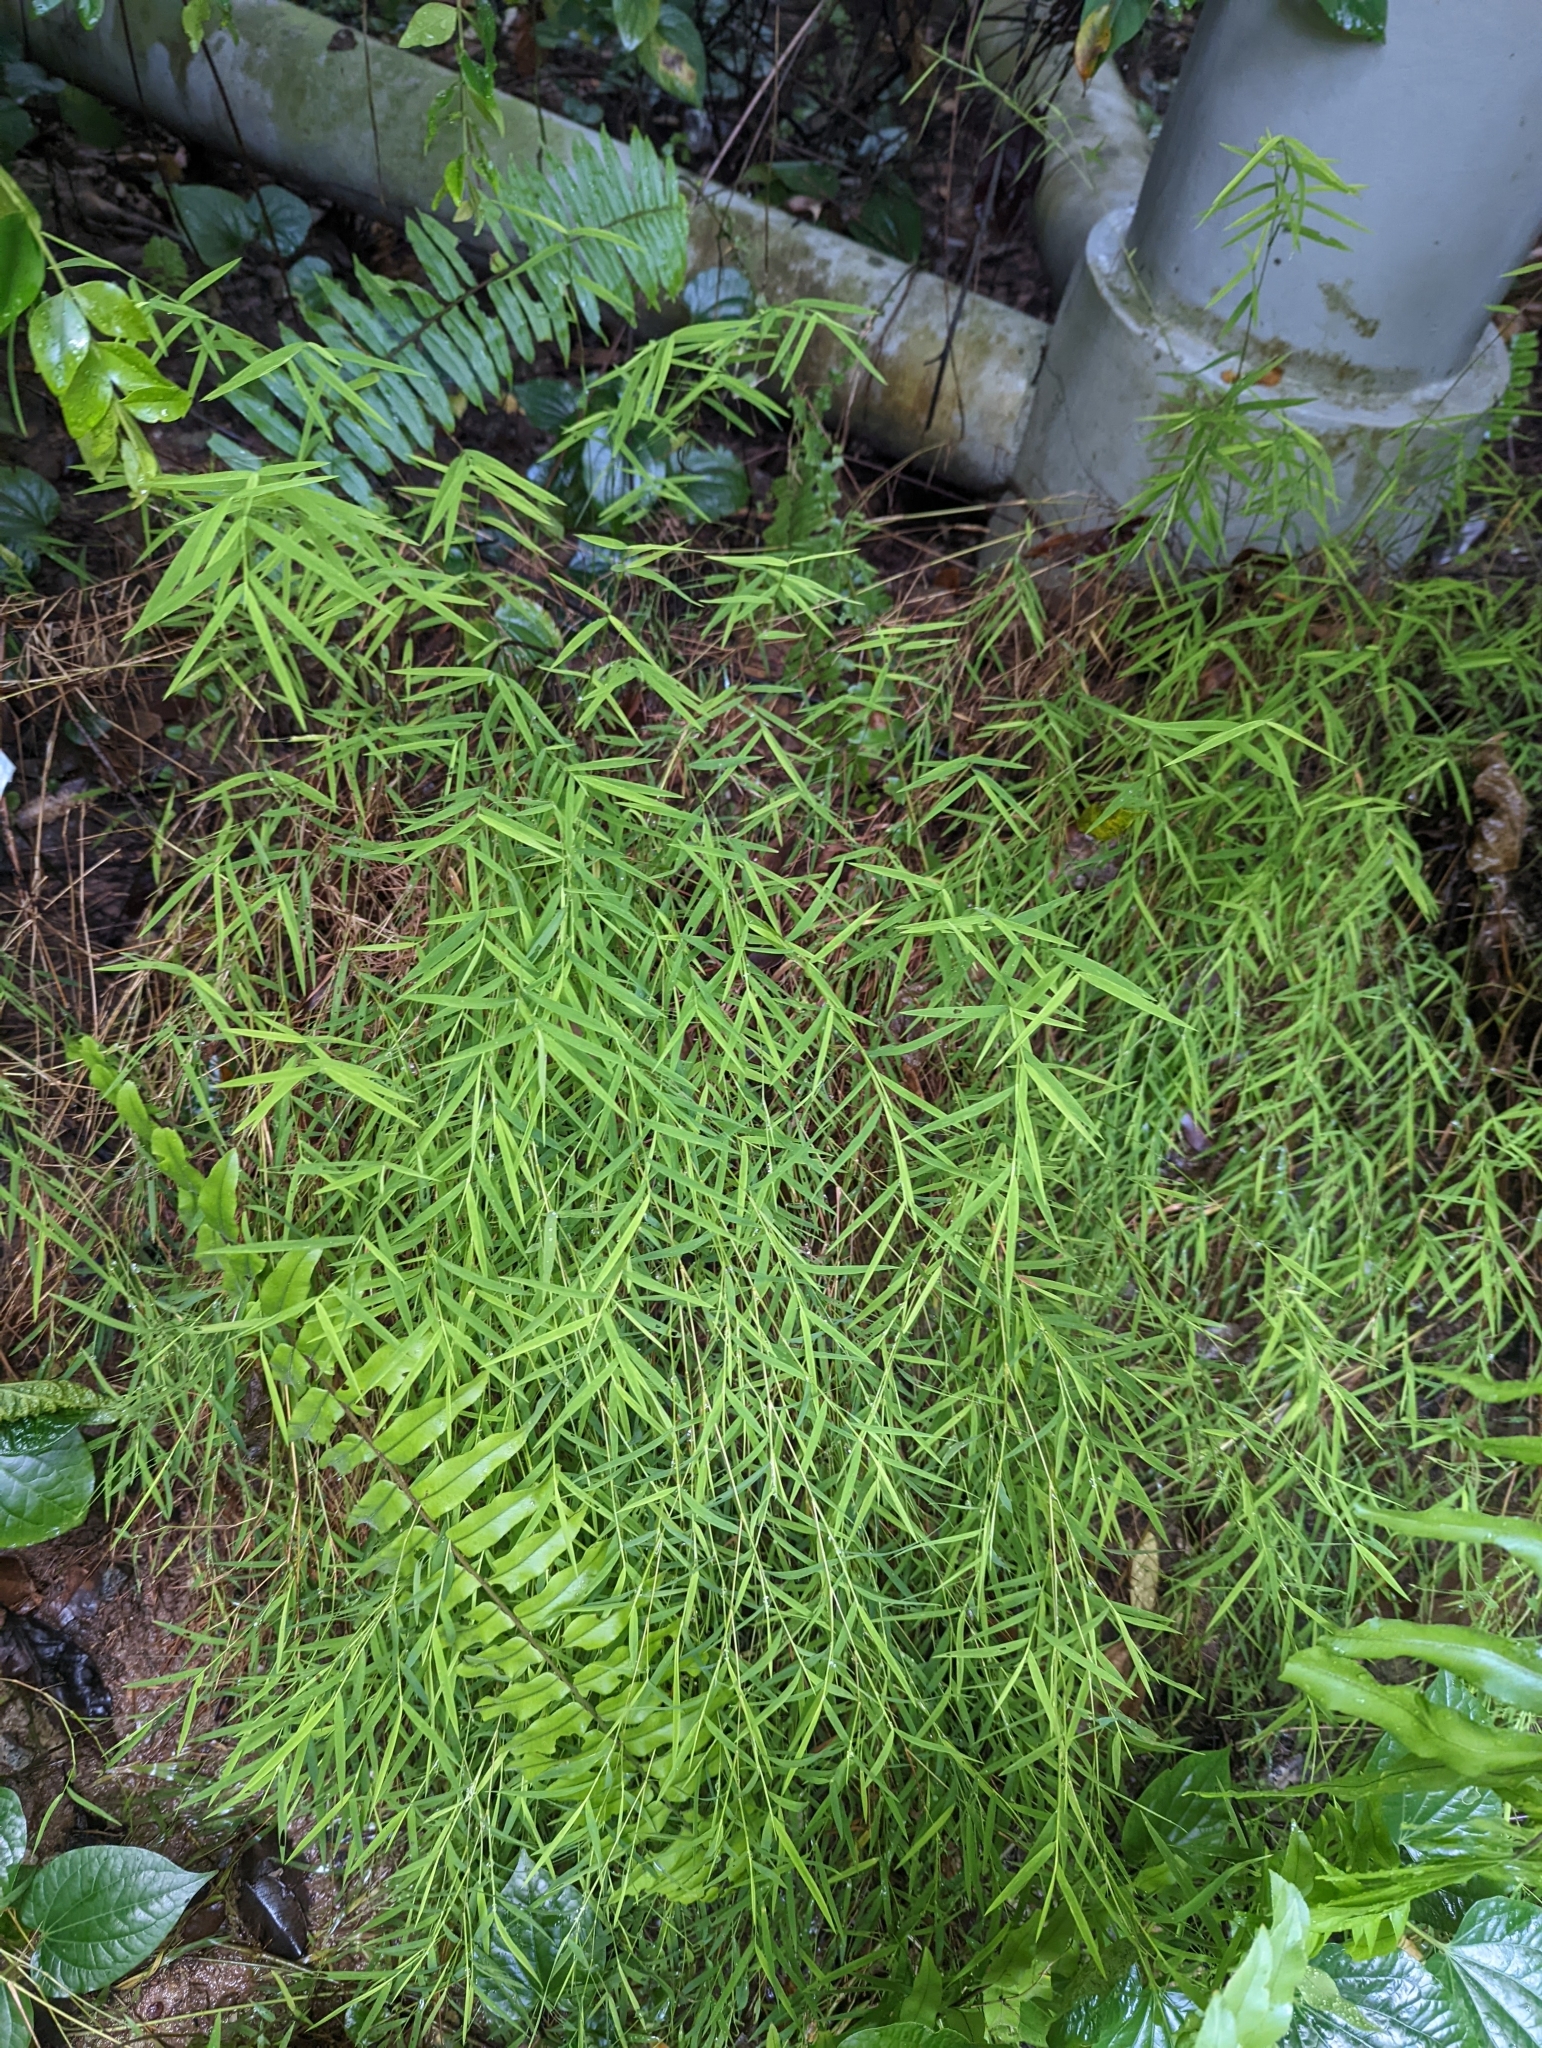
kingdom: Plantae
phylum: Tracheophyta
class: Liliopsida
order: Poales
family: Poaceae
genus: Pogonatherum
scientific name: Pogonatherum crinitum
